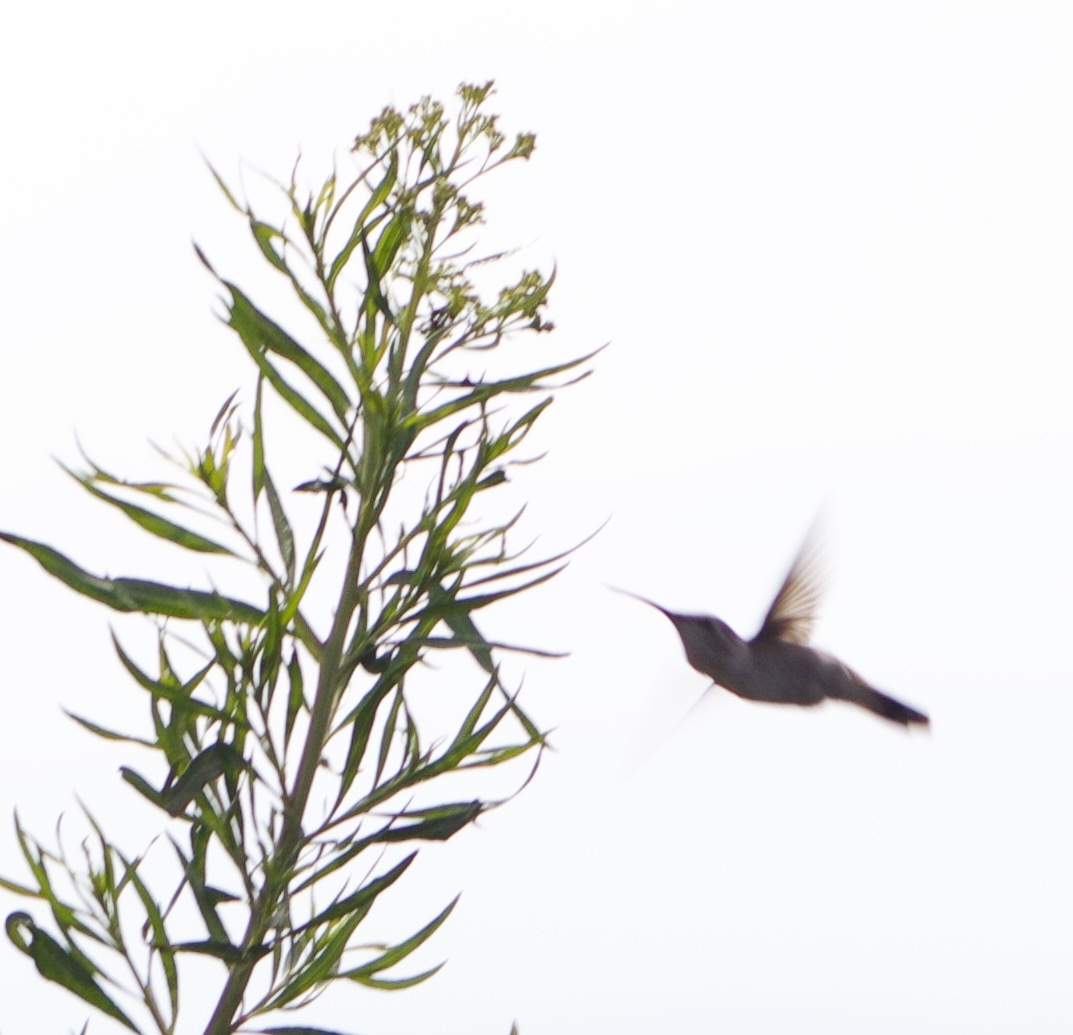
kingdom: Animalia
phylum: Chordata
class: Aves
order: Apodiformes
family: Trochilidae
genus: Rhodopis
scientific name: Rhodopis vesper
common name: Oasis hummingbird
